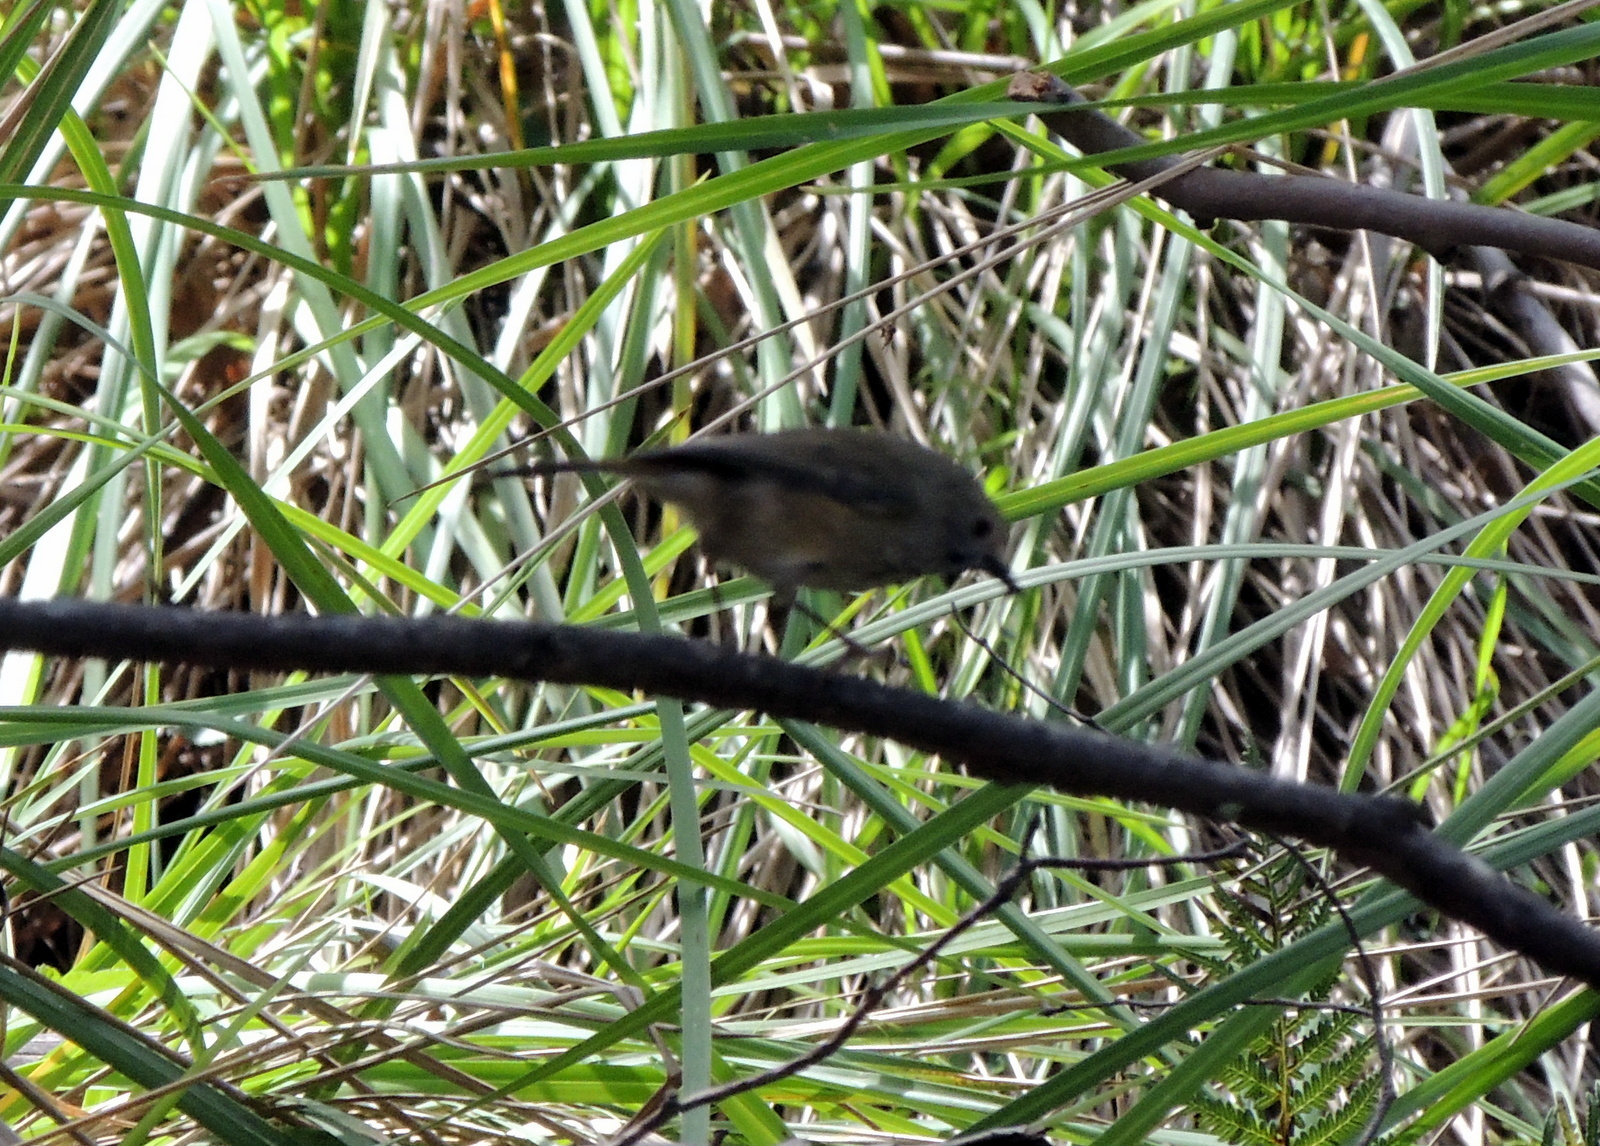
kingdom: Animalia
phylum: Chordata
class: Aves
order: Passeriformes
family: Acanthizidae
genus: Acanthiza
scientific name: Acanthiza pusilla
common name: Brown thornbill
